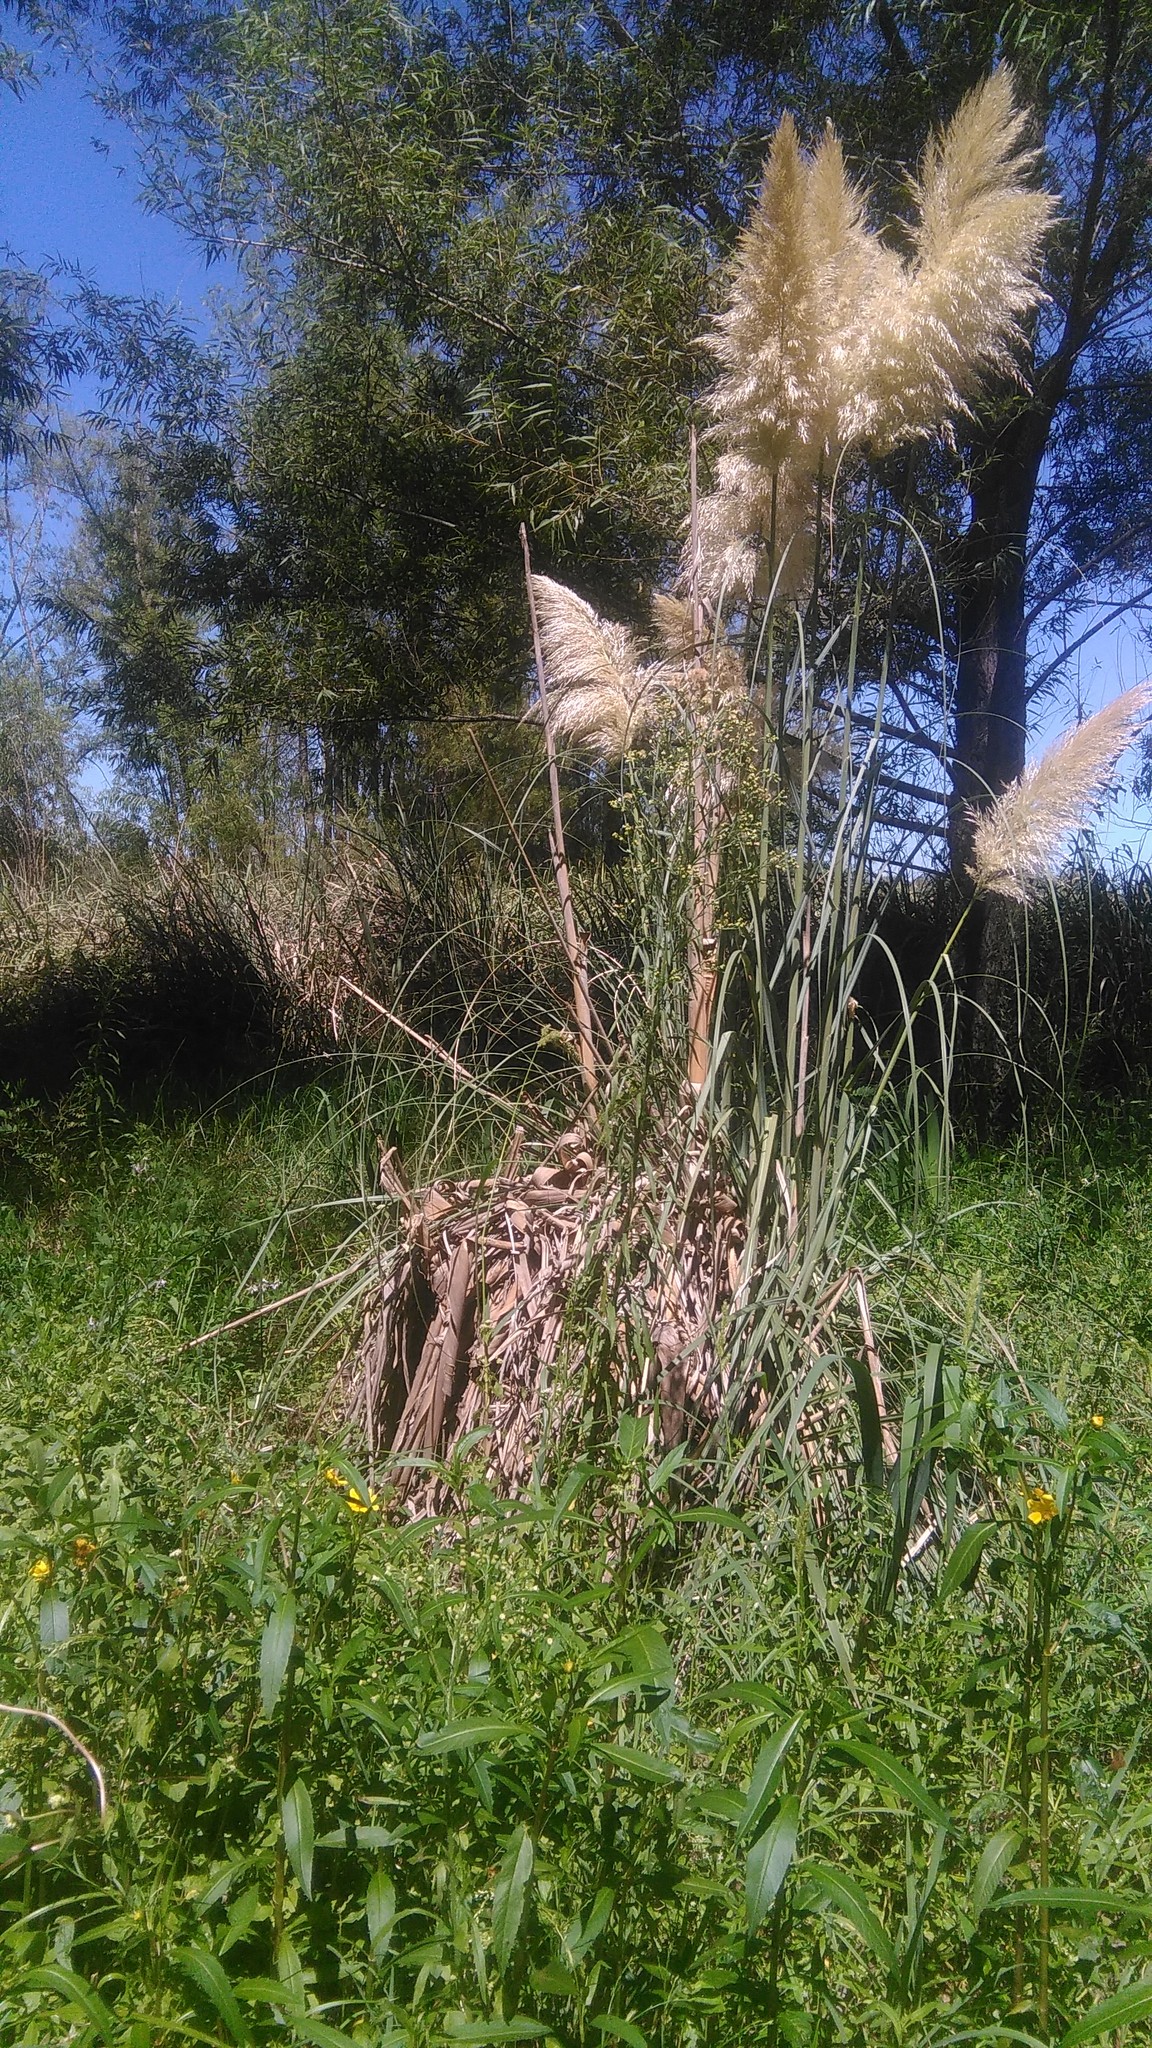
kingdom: Plantae
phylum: Tracheophyta
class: Liliopsida
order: Poales
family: Poaceae
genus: Cortaderia
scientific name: Cortaderia selloana
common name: Uruguayan pampas grass
